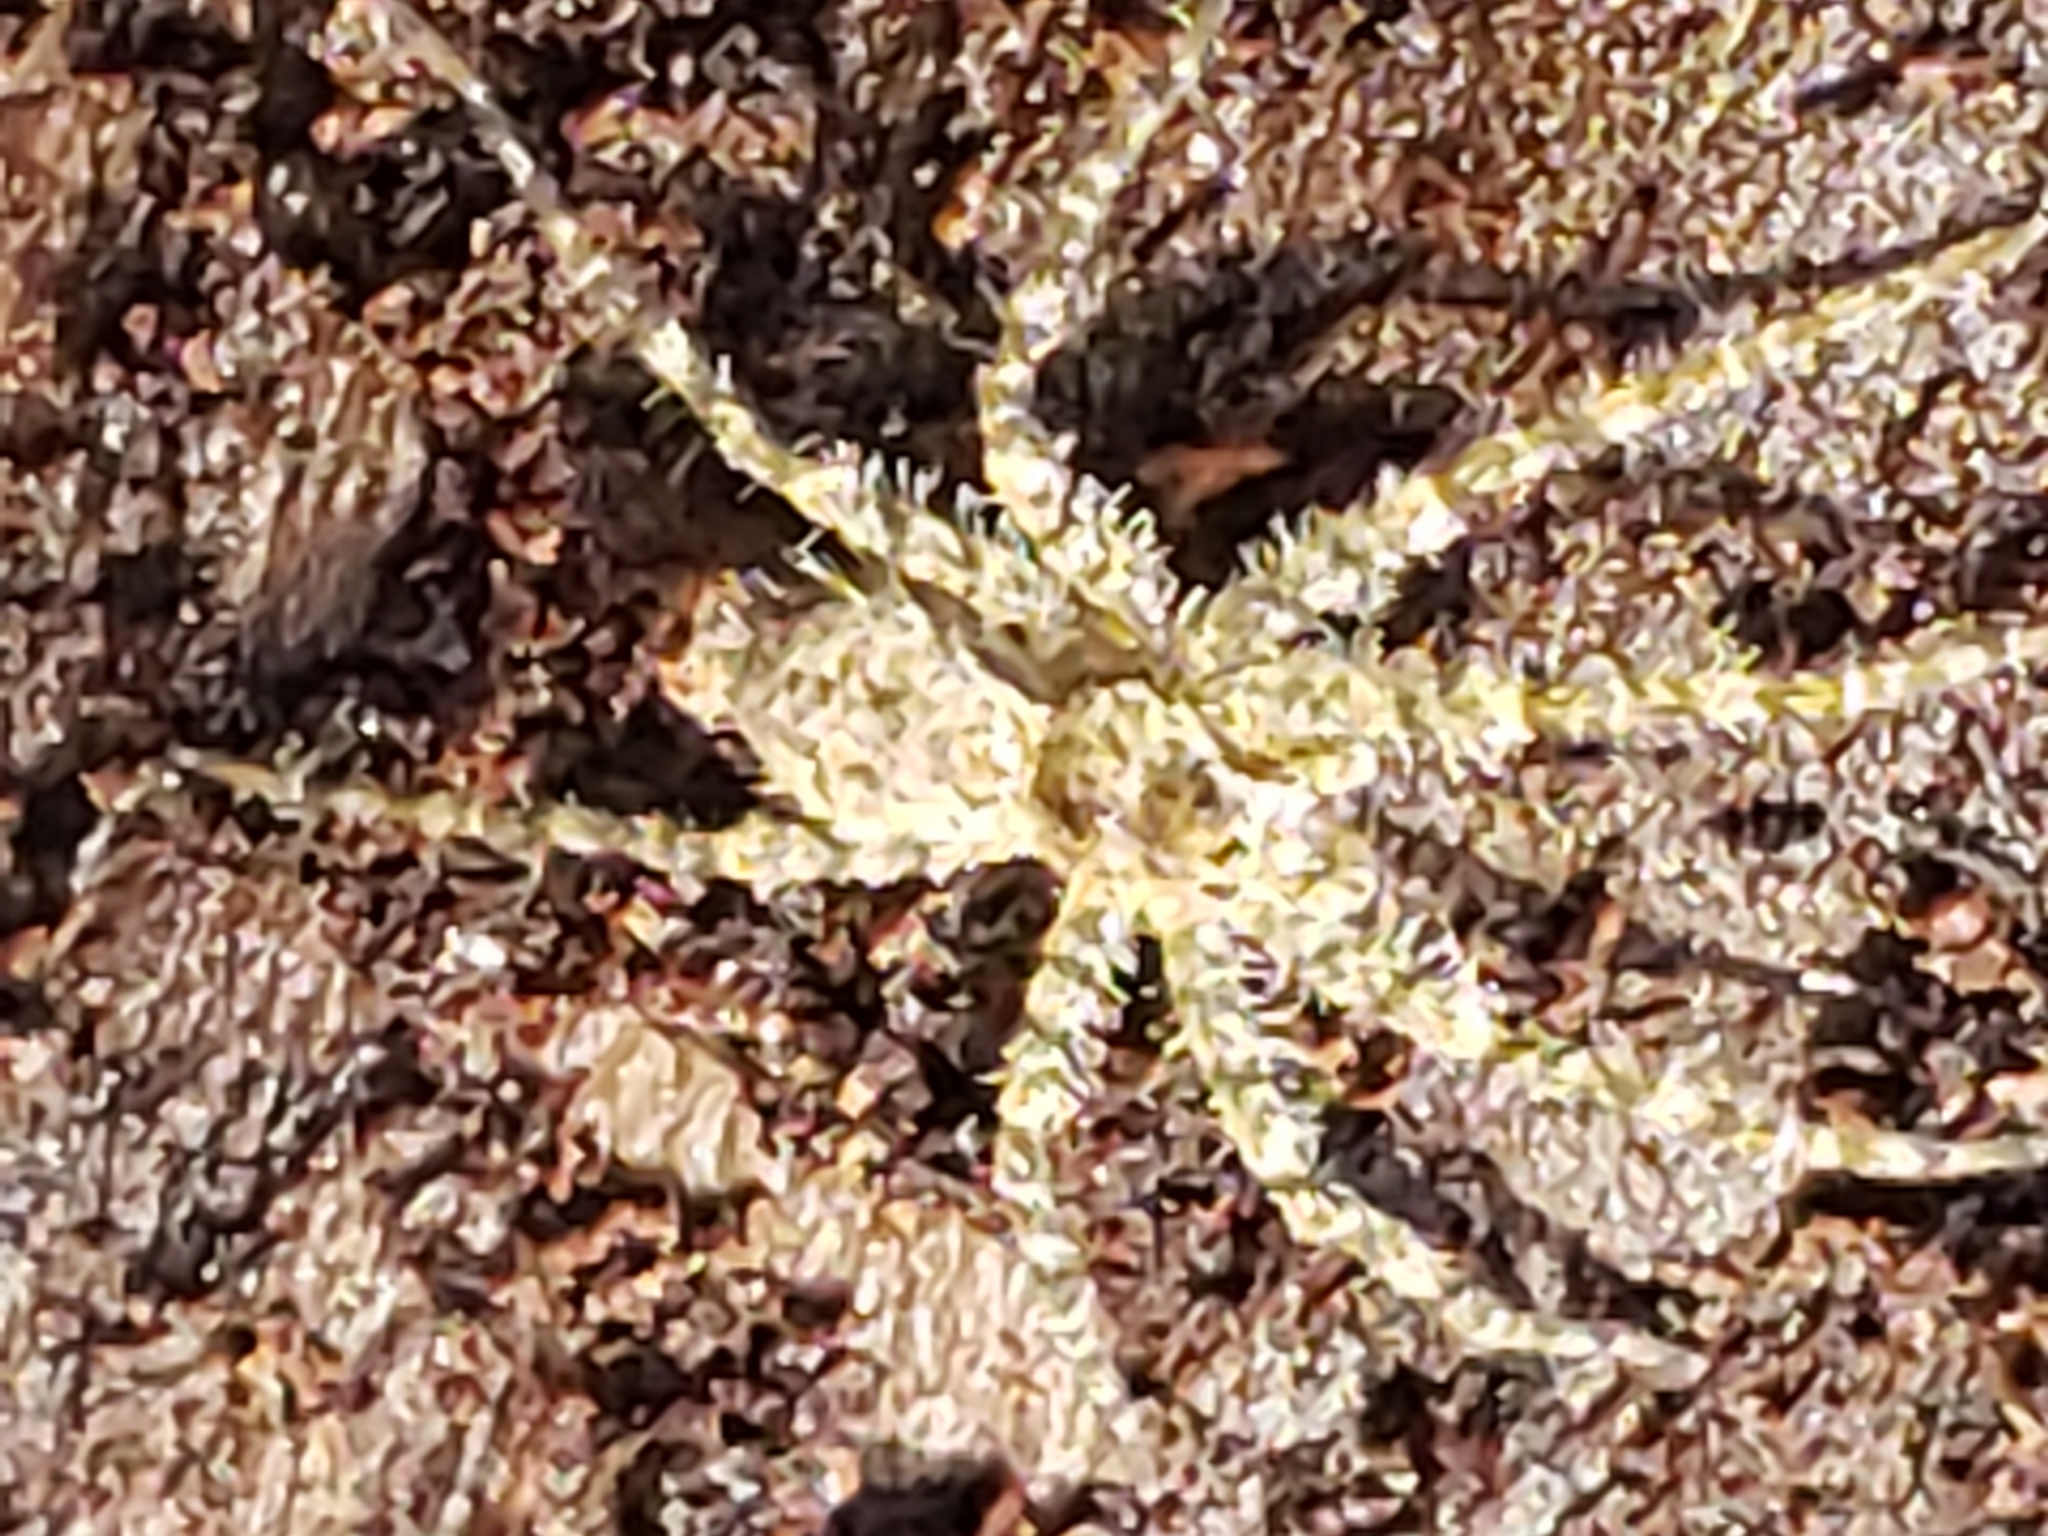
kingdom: Animalia
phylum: Arthropoda
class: Arachnida
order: Araneae
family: Pisauridae
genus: Dolomedes
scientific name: Dolomedes albineus
